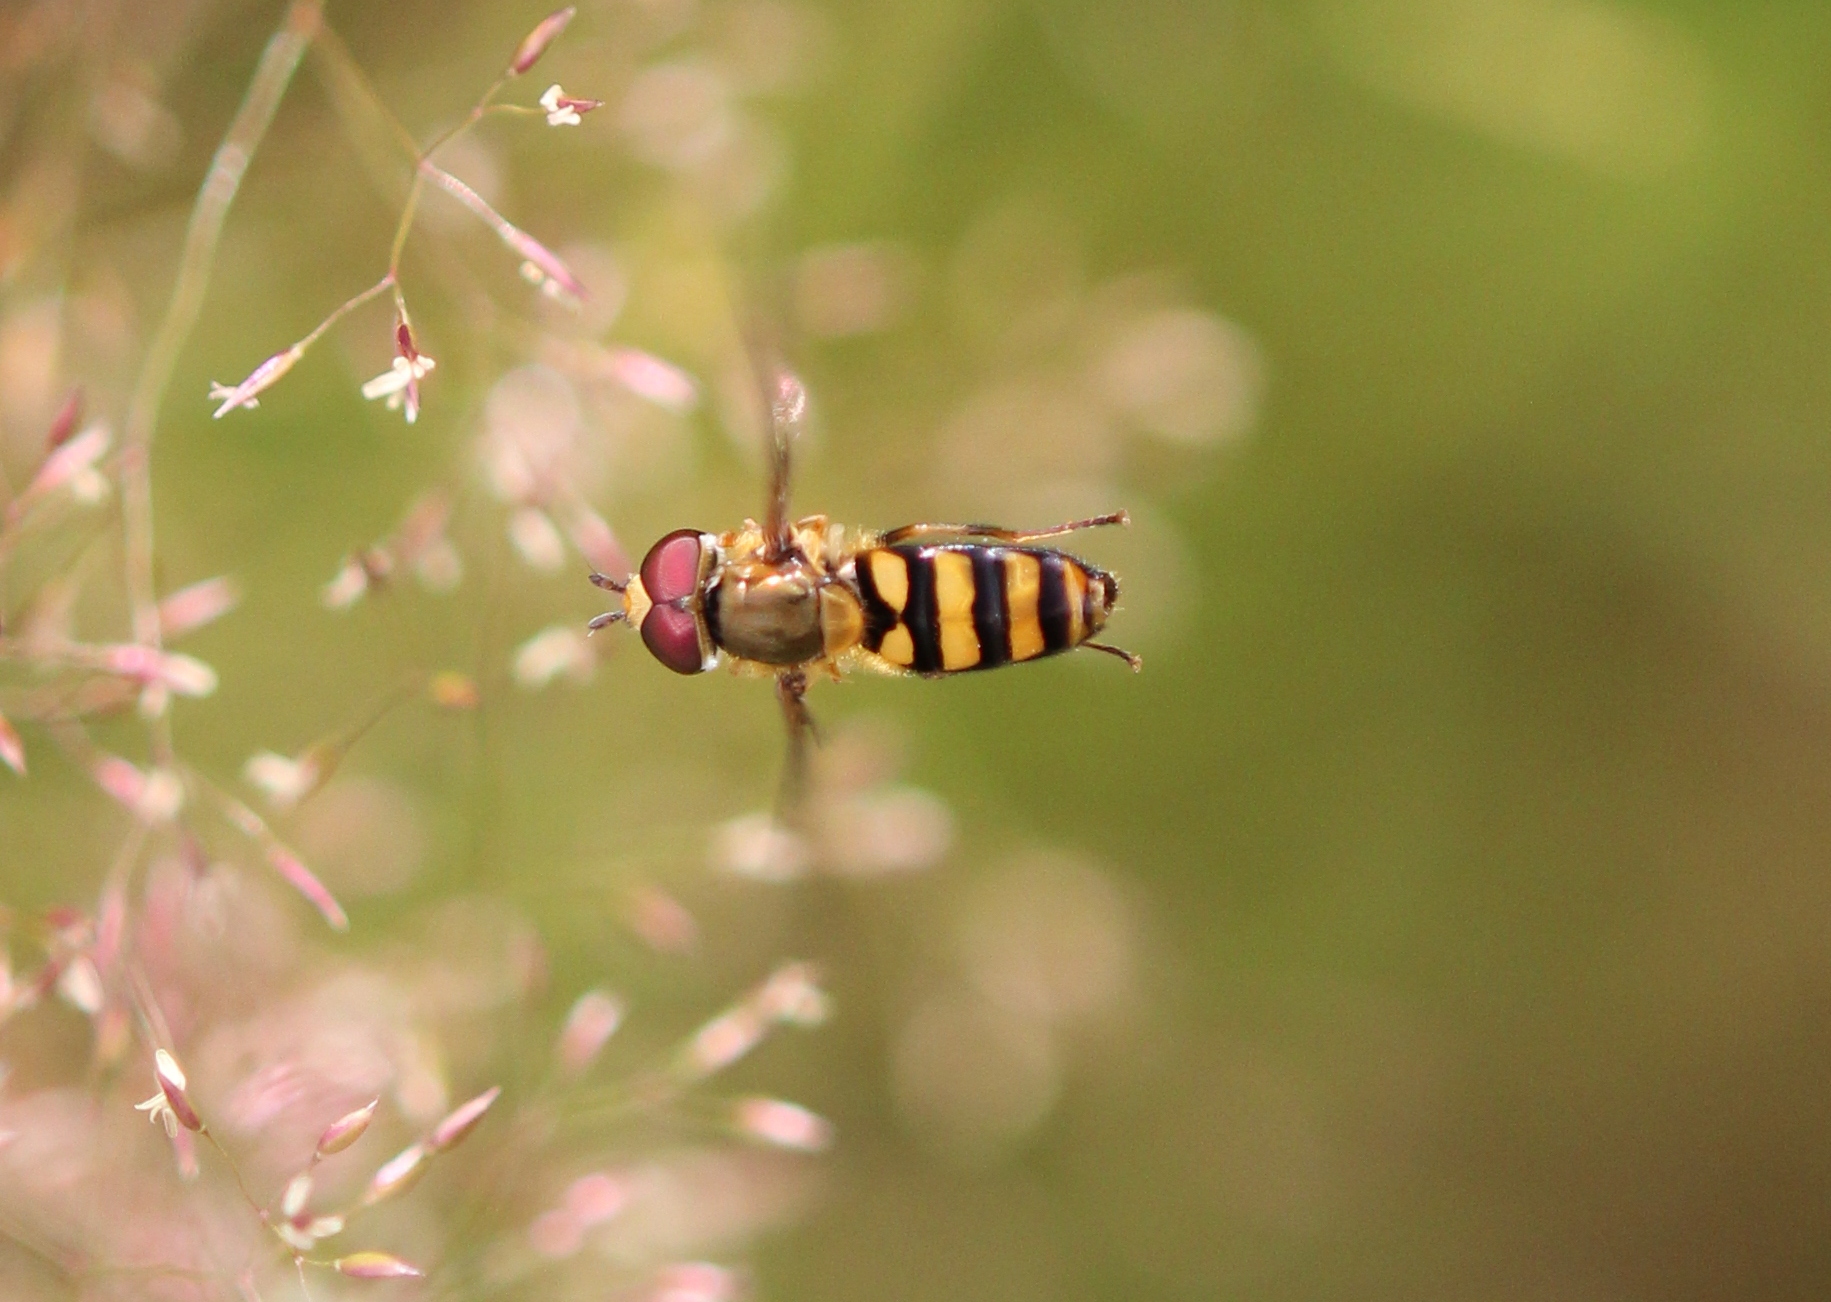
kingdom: Animalia
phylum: Arthropoda
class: Insecta
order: Diptera
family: Syrphidae
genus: Eupeodes
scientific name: Eupeodes
